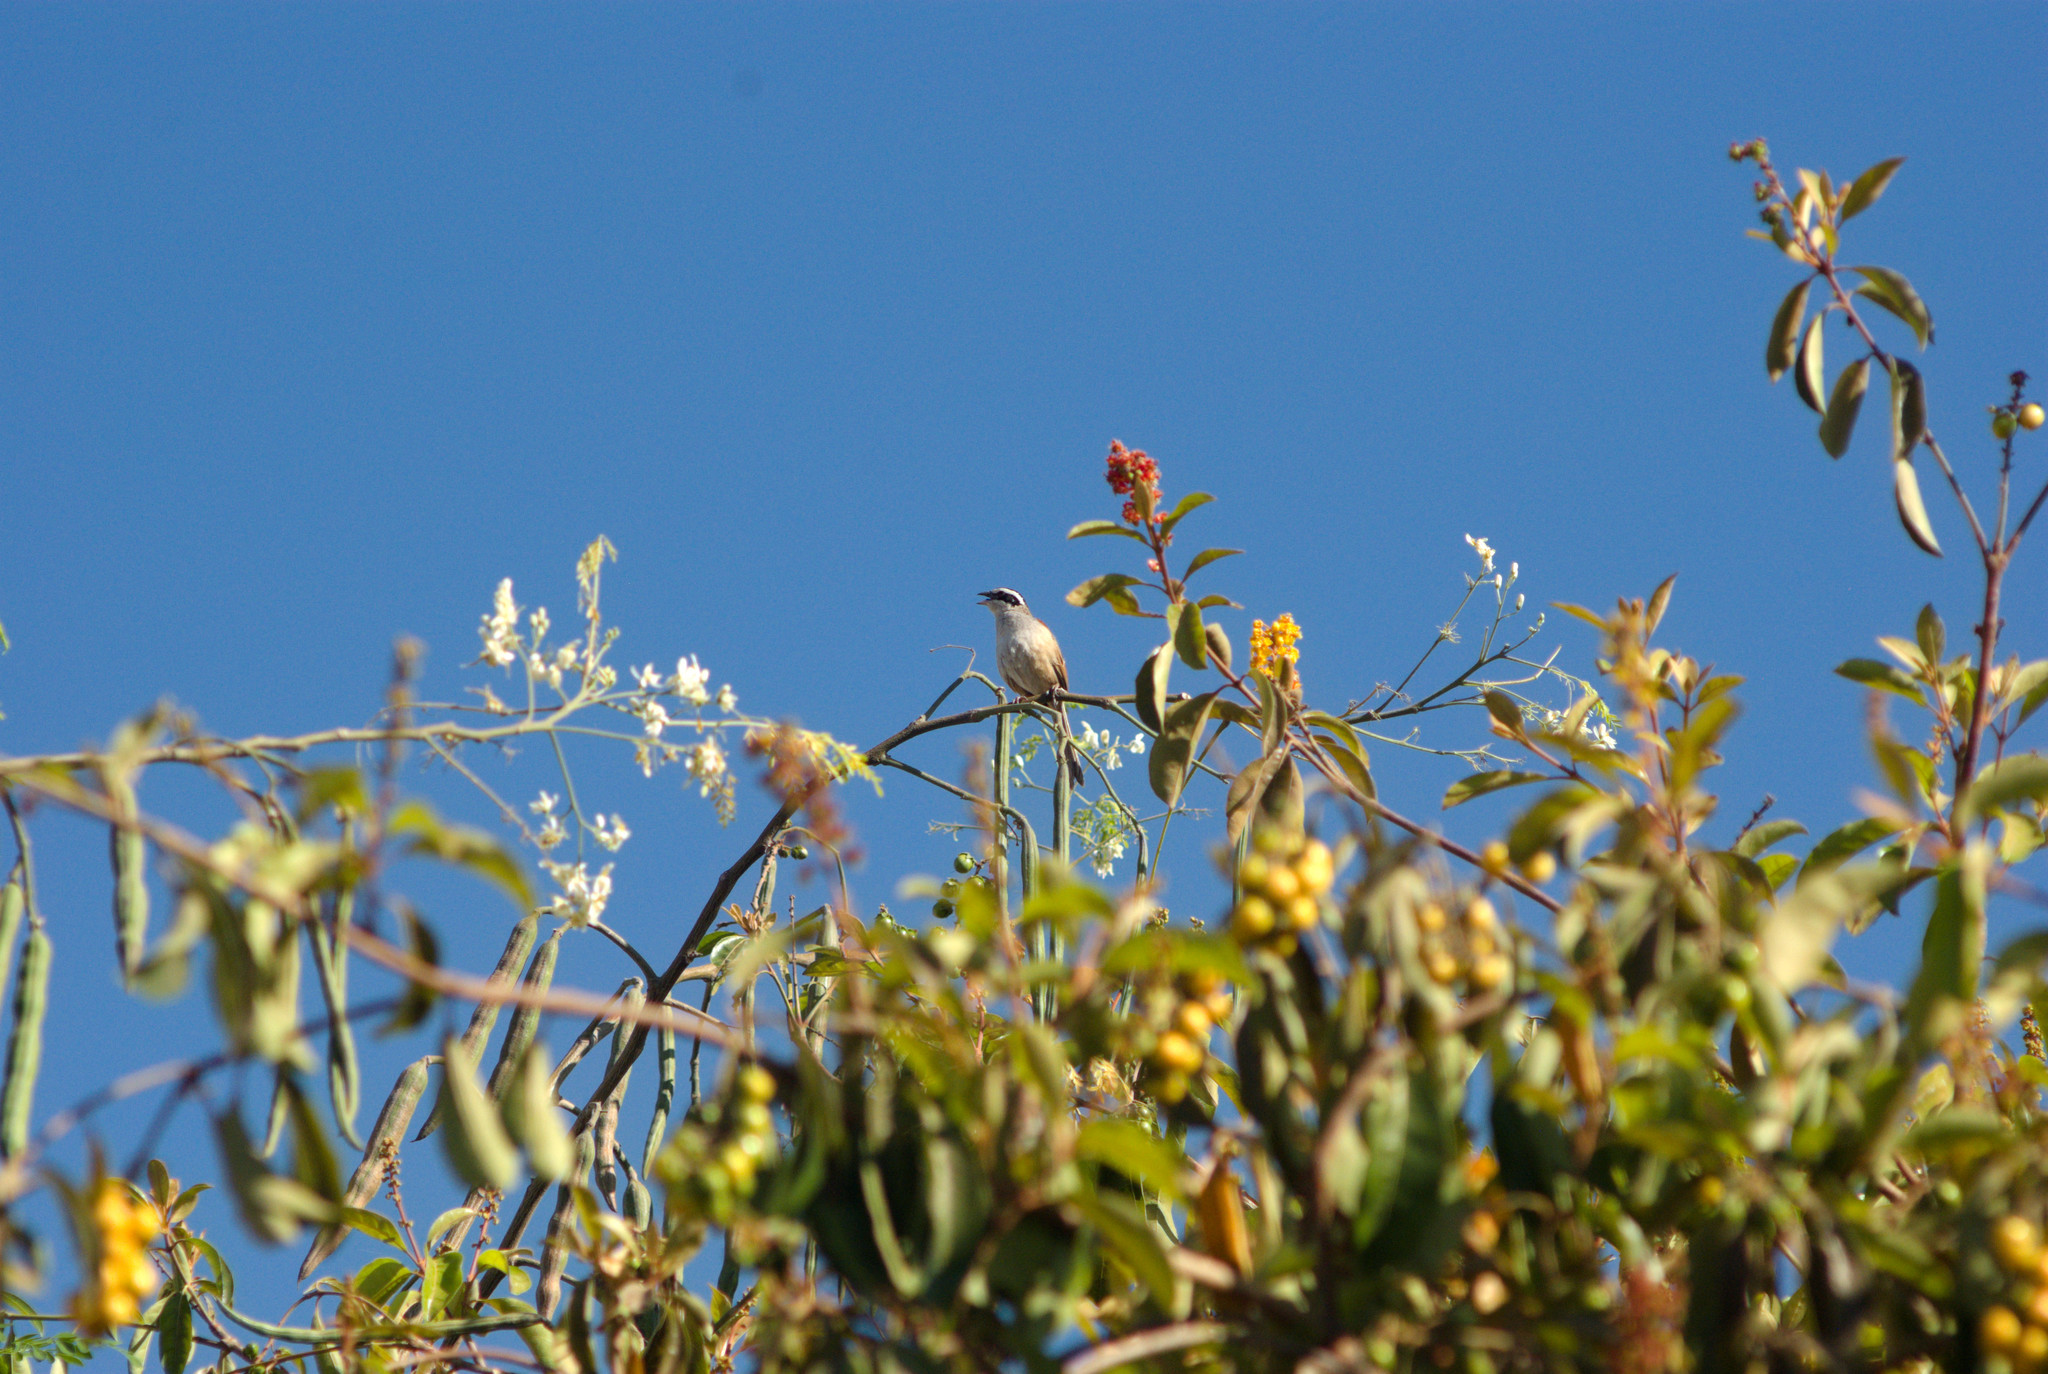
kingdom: Animalia
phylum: Chordata
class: Aves
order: Passeriformes
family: Passerellidae
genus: Peucaea
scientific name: Peucaea ruficauda
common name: Stripe-headed sparrow
